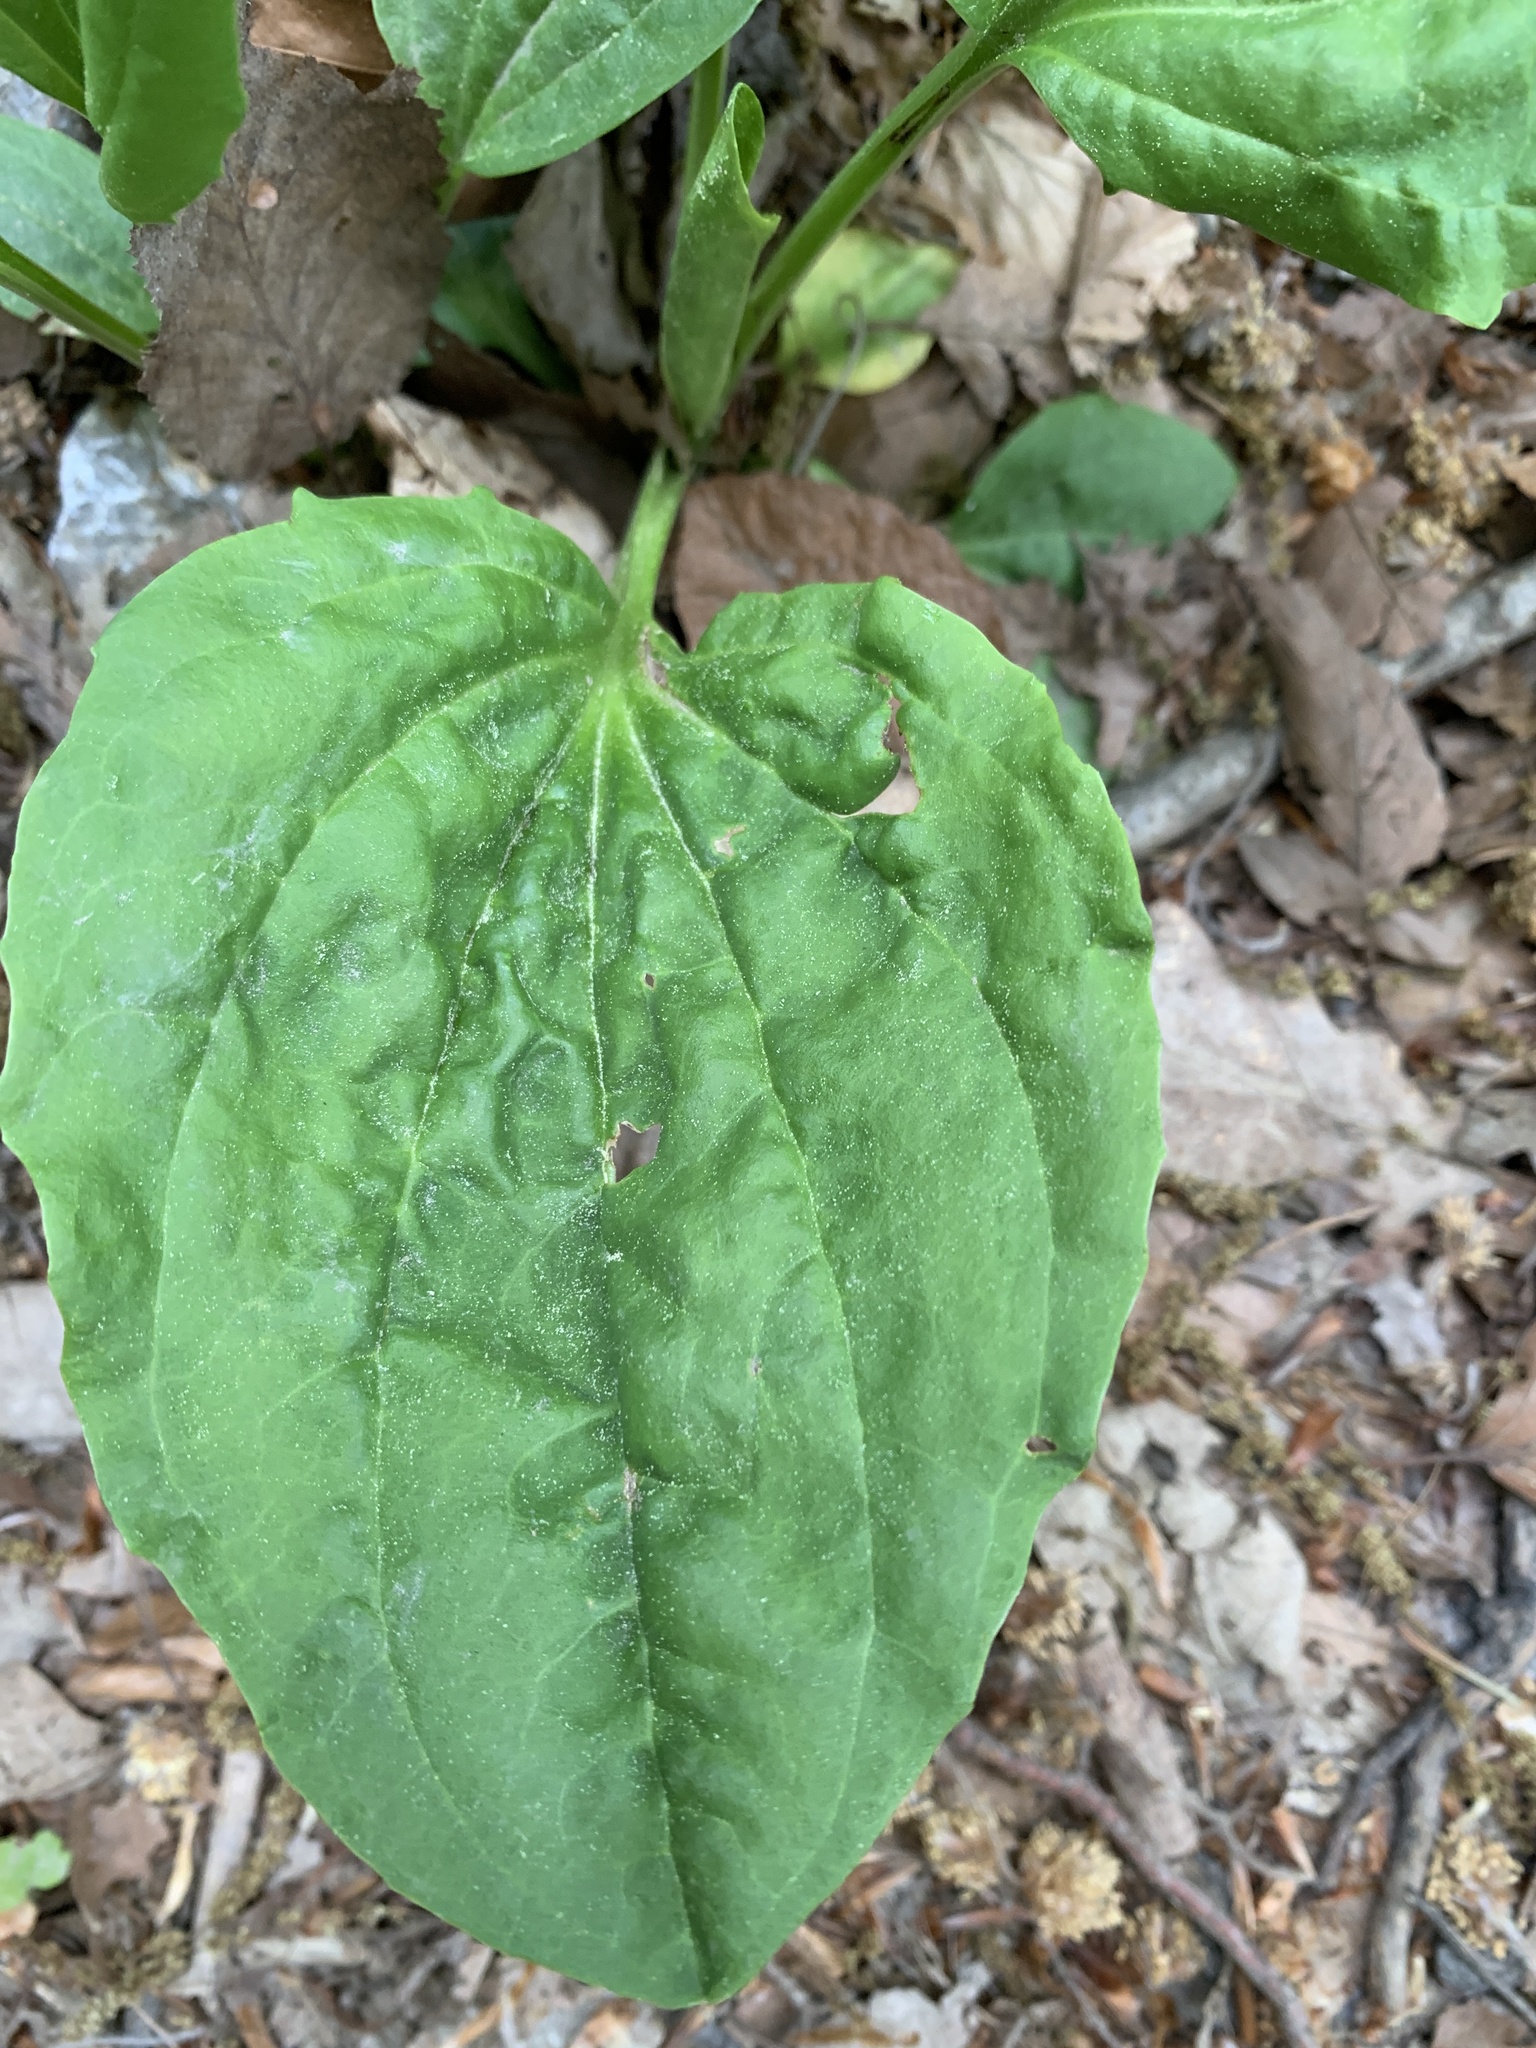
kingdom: Plantae
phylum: Tracheophyta
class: Magnoliopsida
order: Lamiales
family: Plantaginaceae
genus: Plantago
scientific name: Plantago major
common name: Common plantain
